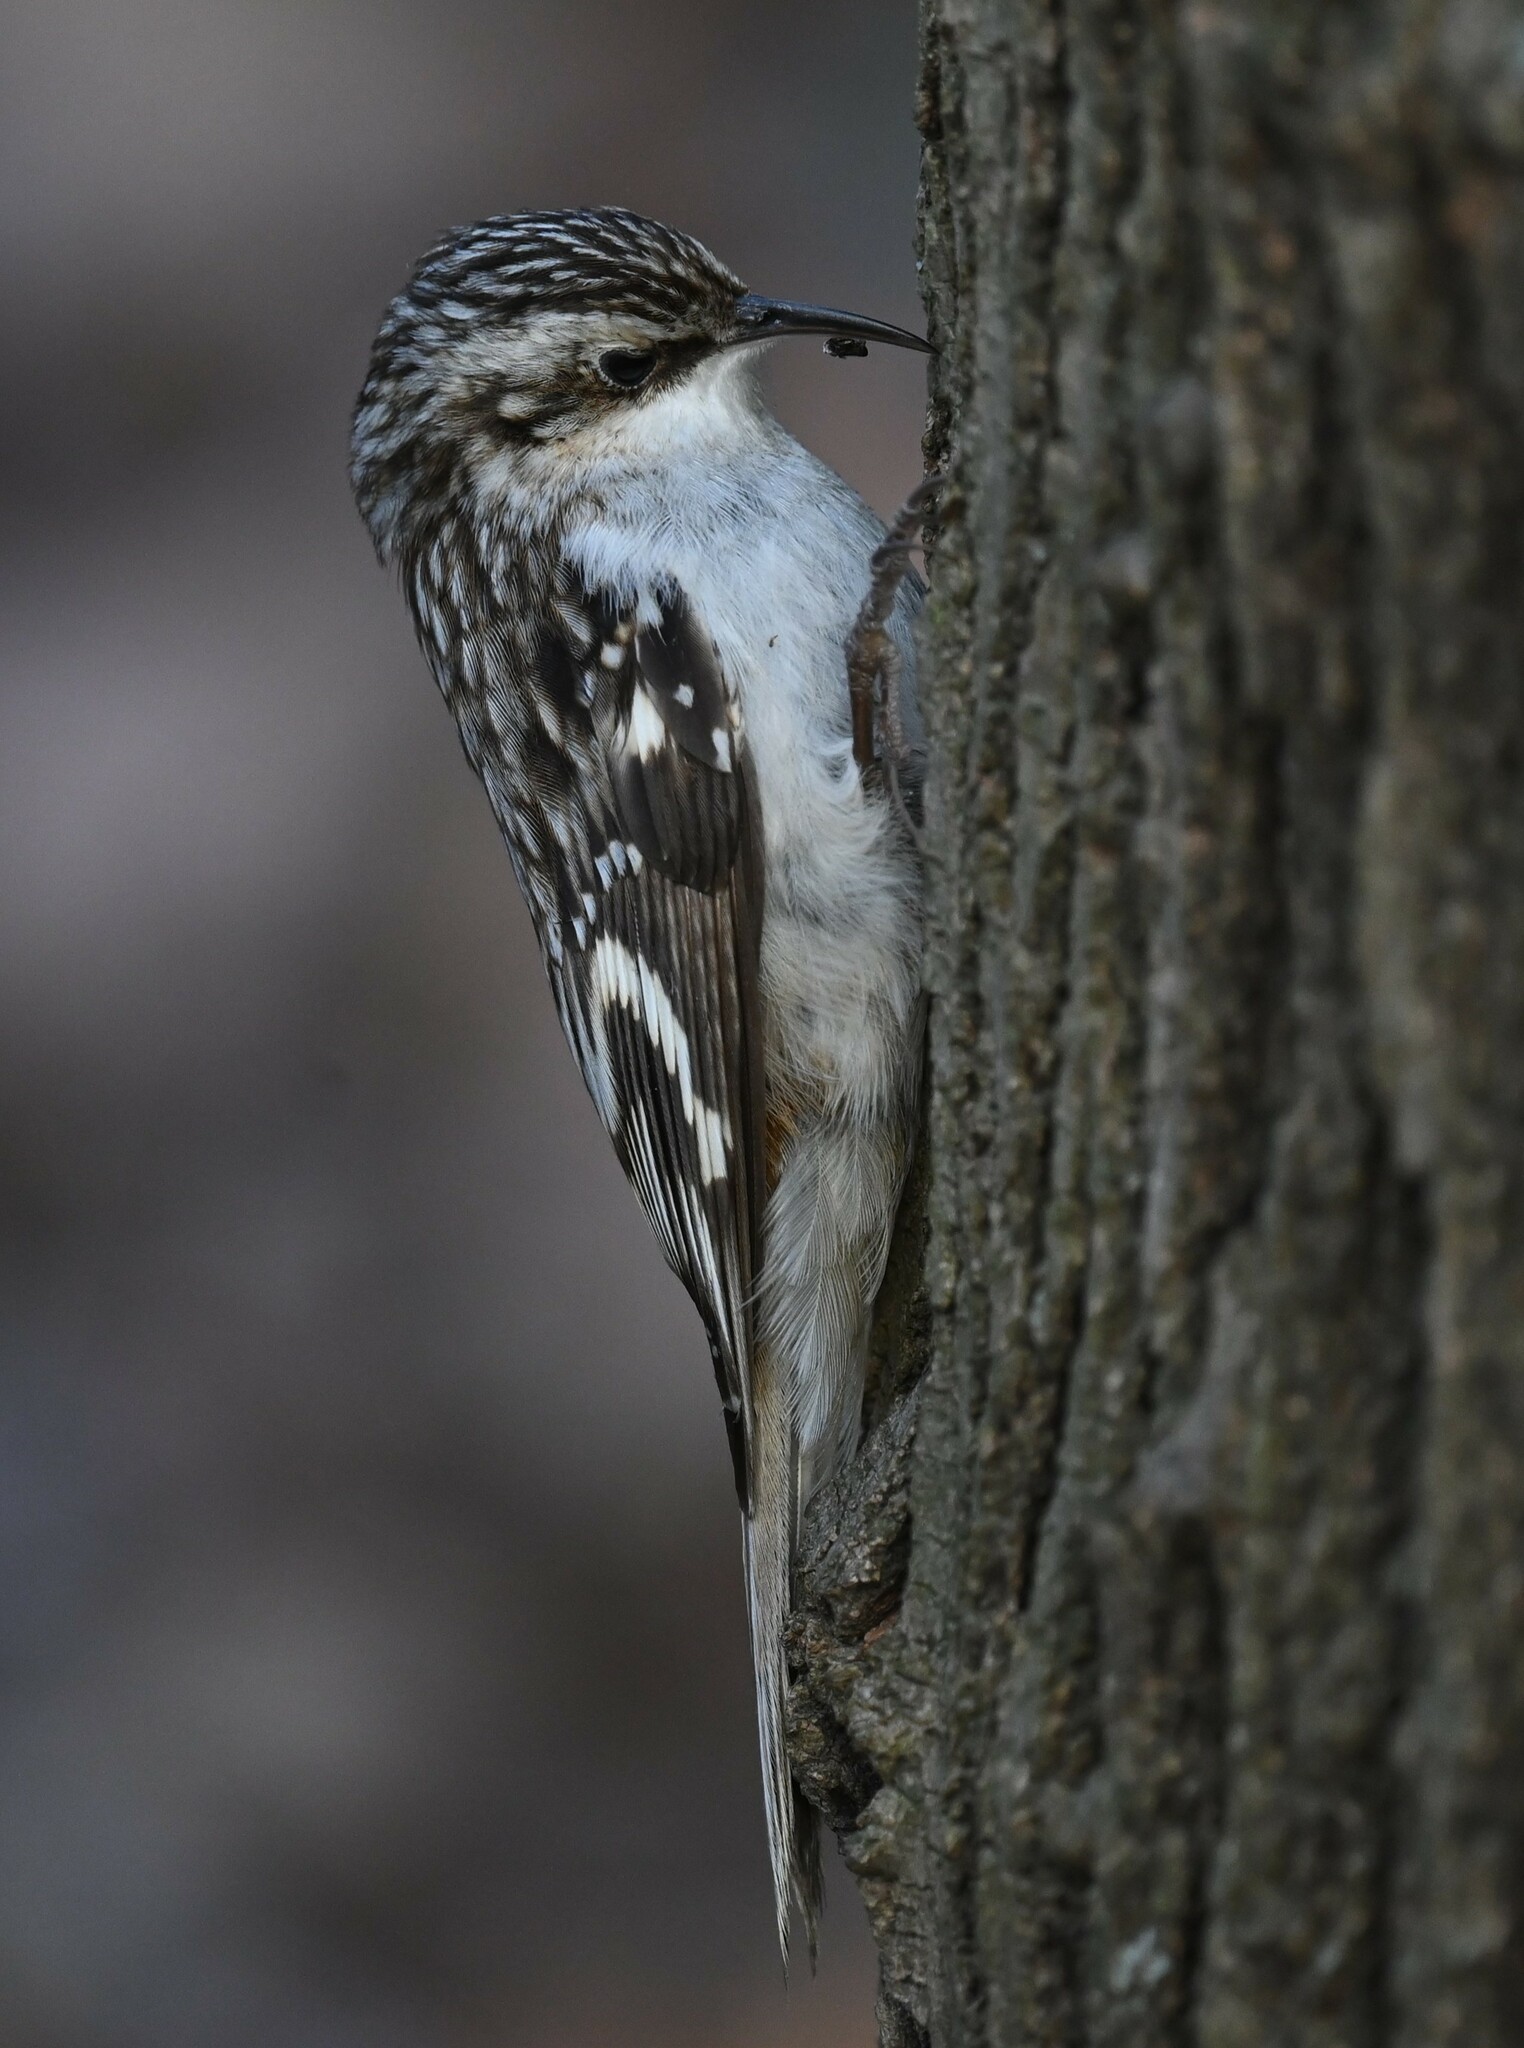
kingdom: Animalia
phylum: Chordata
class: Aves
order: Passeriformes
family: Certhiidae
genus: Certhia
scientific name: Certhia americana
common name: Brown creeper
